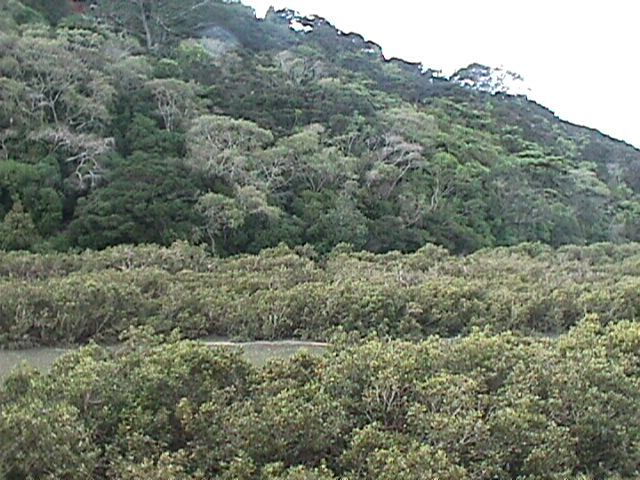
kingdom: Plantae
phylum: Tracheophyta
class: Magnoliopsida
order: Lamiales
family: Acanthaceae
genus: Avicennia
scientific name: Avicennia marina
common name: Gray mangrove
